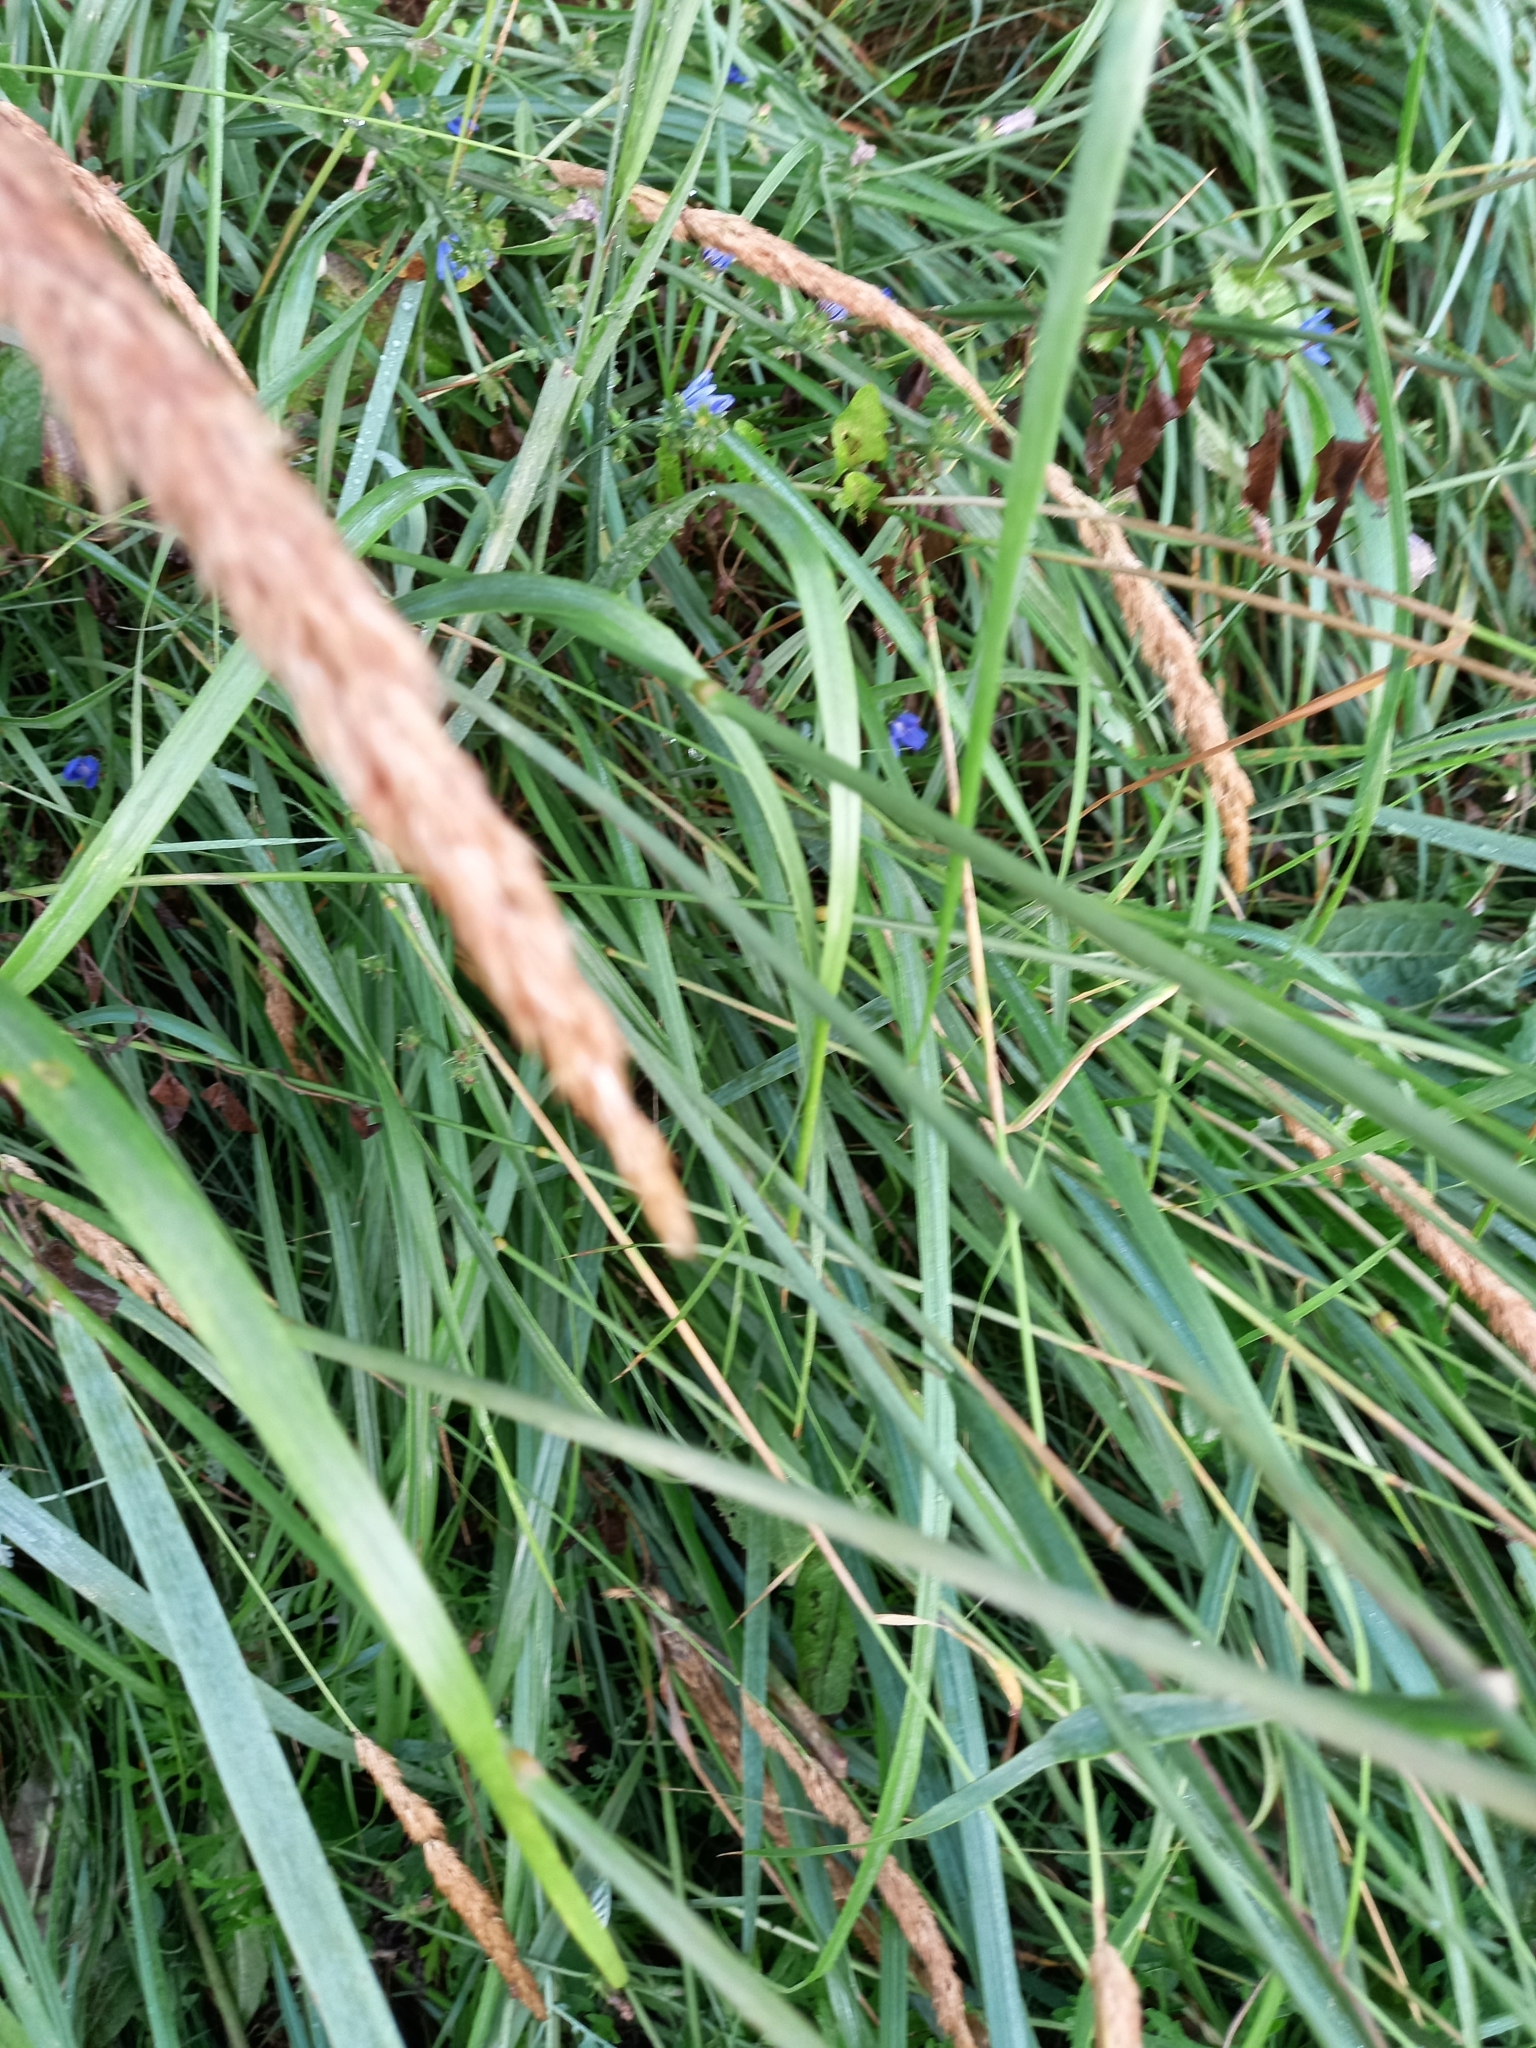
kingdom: Plantae
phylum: Tracheophyta
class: Liliopsida
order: Poales
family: Poaceae
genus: Calamagrostis
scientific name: Calamagrostis epigejos
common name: Wood small-reed
